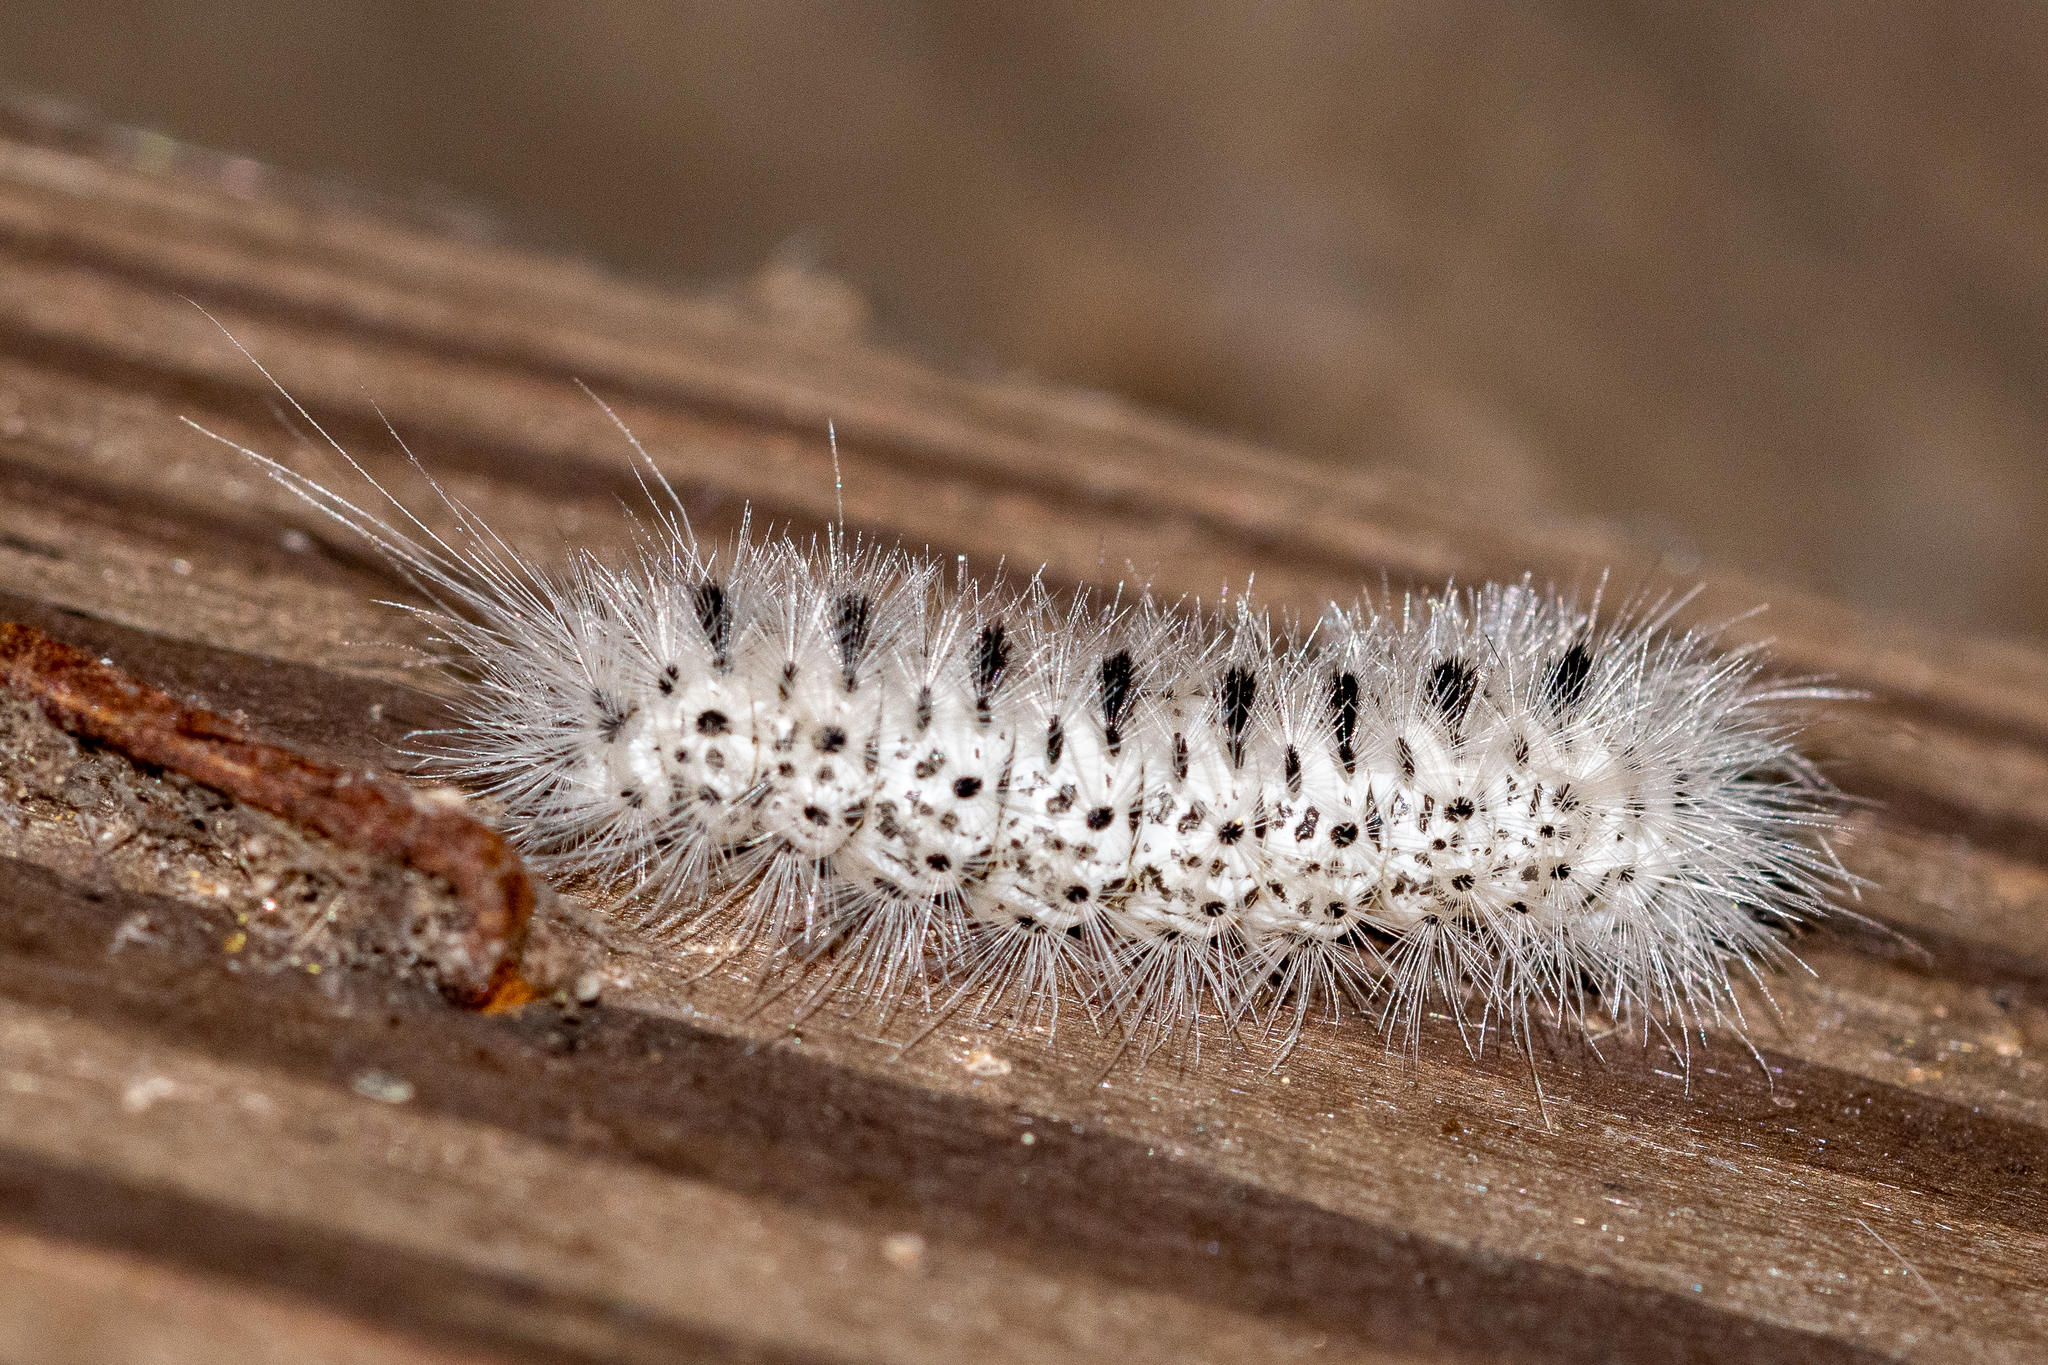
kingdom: Animalia
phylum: Arthropoda
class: Insecta
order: Lepidoptera
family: Erebidae
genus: Lophocampa
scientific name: Lophocampa caryae
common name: Hickory tussock moth
